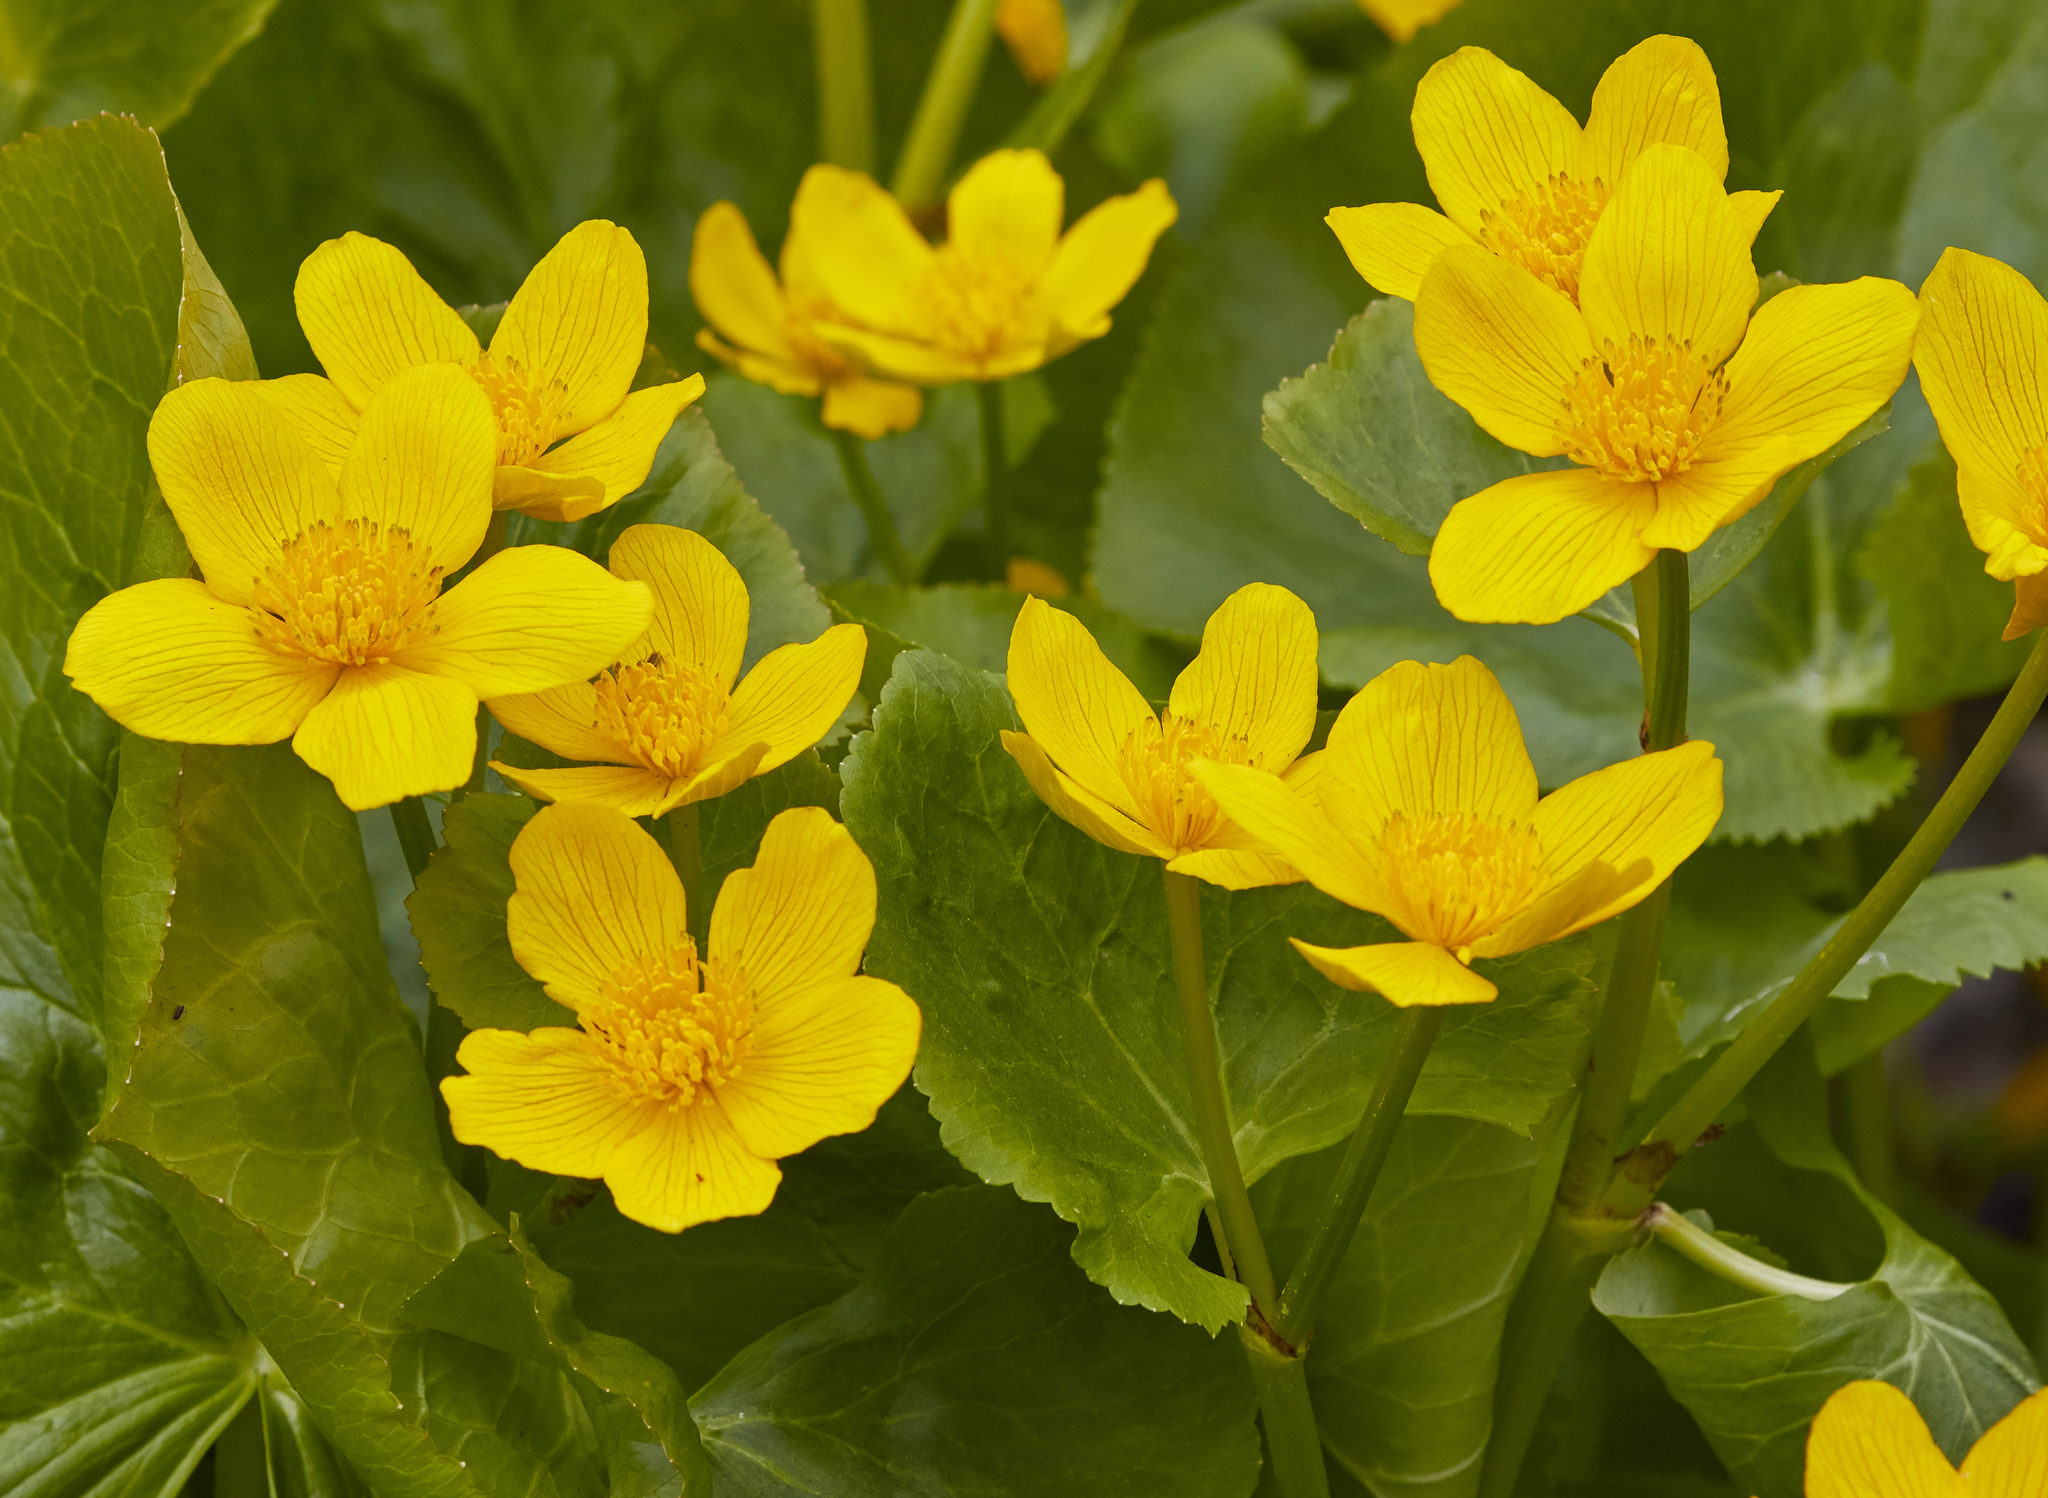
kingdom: Plantae
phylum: Tracheophyta
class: Magnoliopsida
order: Ranunculales
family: Ranunculaceae
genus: Caltha
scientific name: Caltha palustris
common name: Marsh marigold
